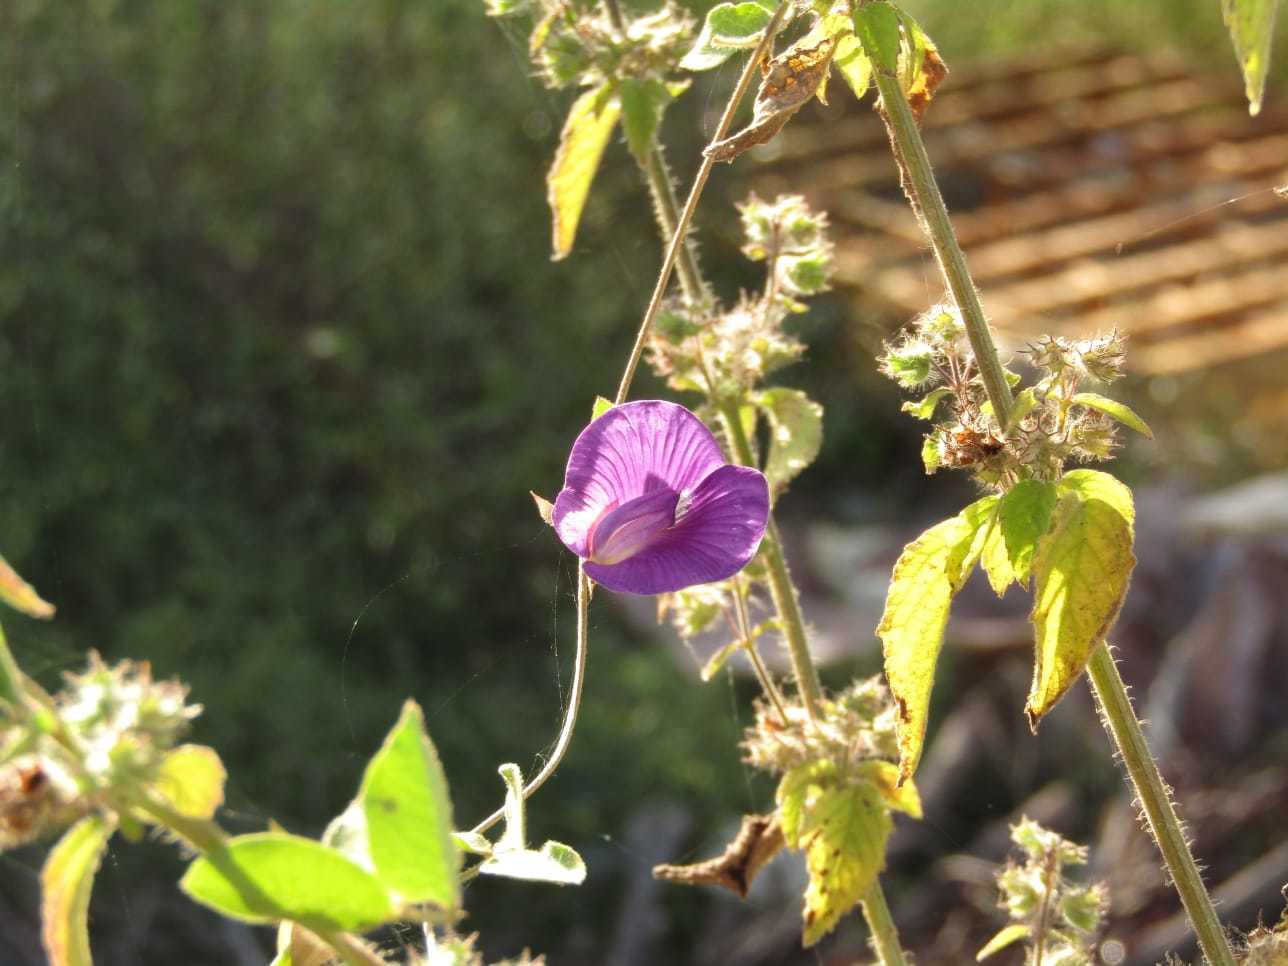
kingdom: Plantae
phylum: Tracheophyta
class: Magnoliopsida
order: Fabales
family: Fabaceae
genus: Centrosema
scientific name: Centrosema brasilianum
